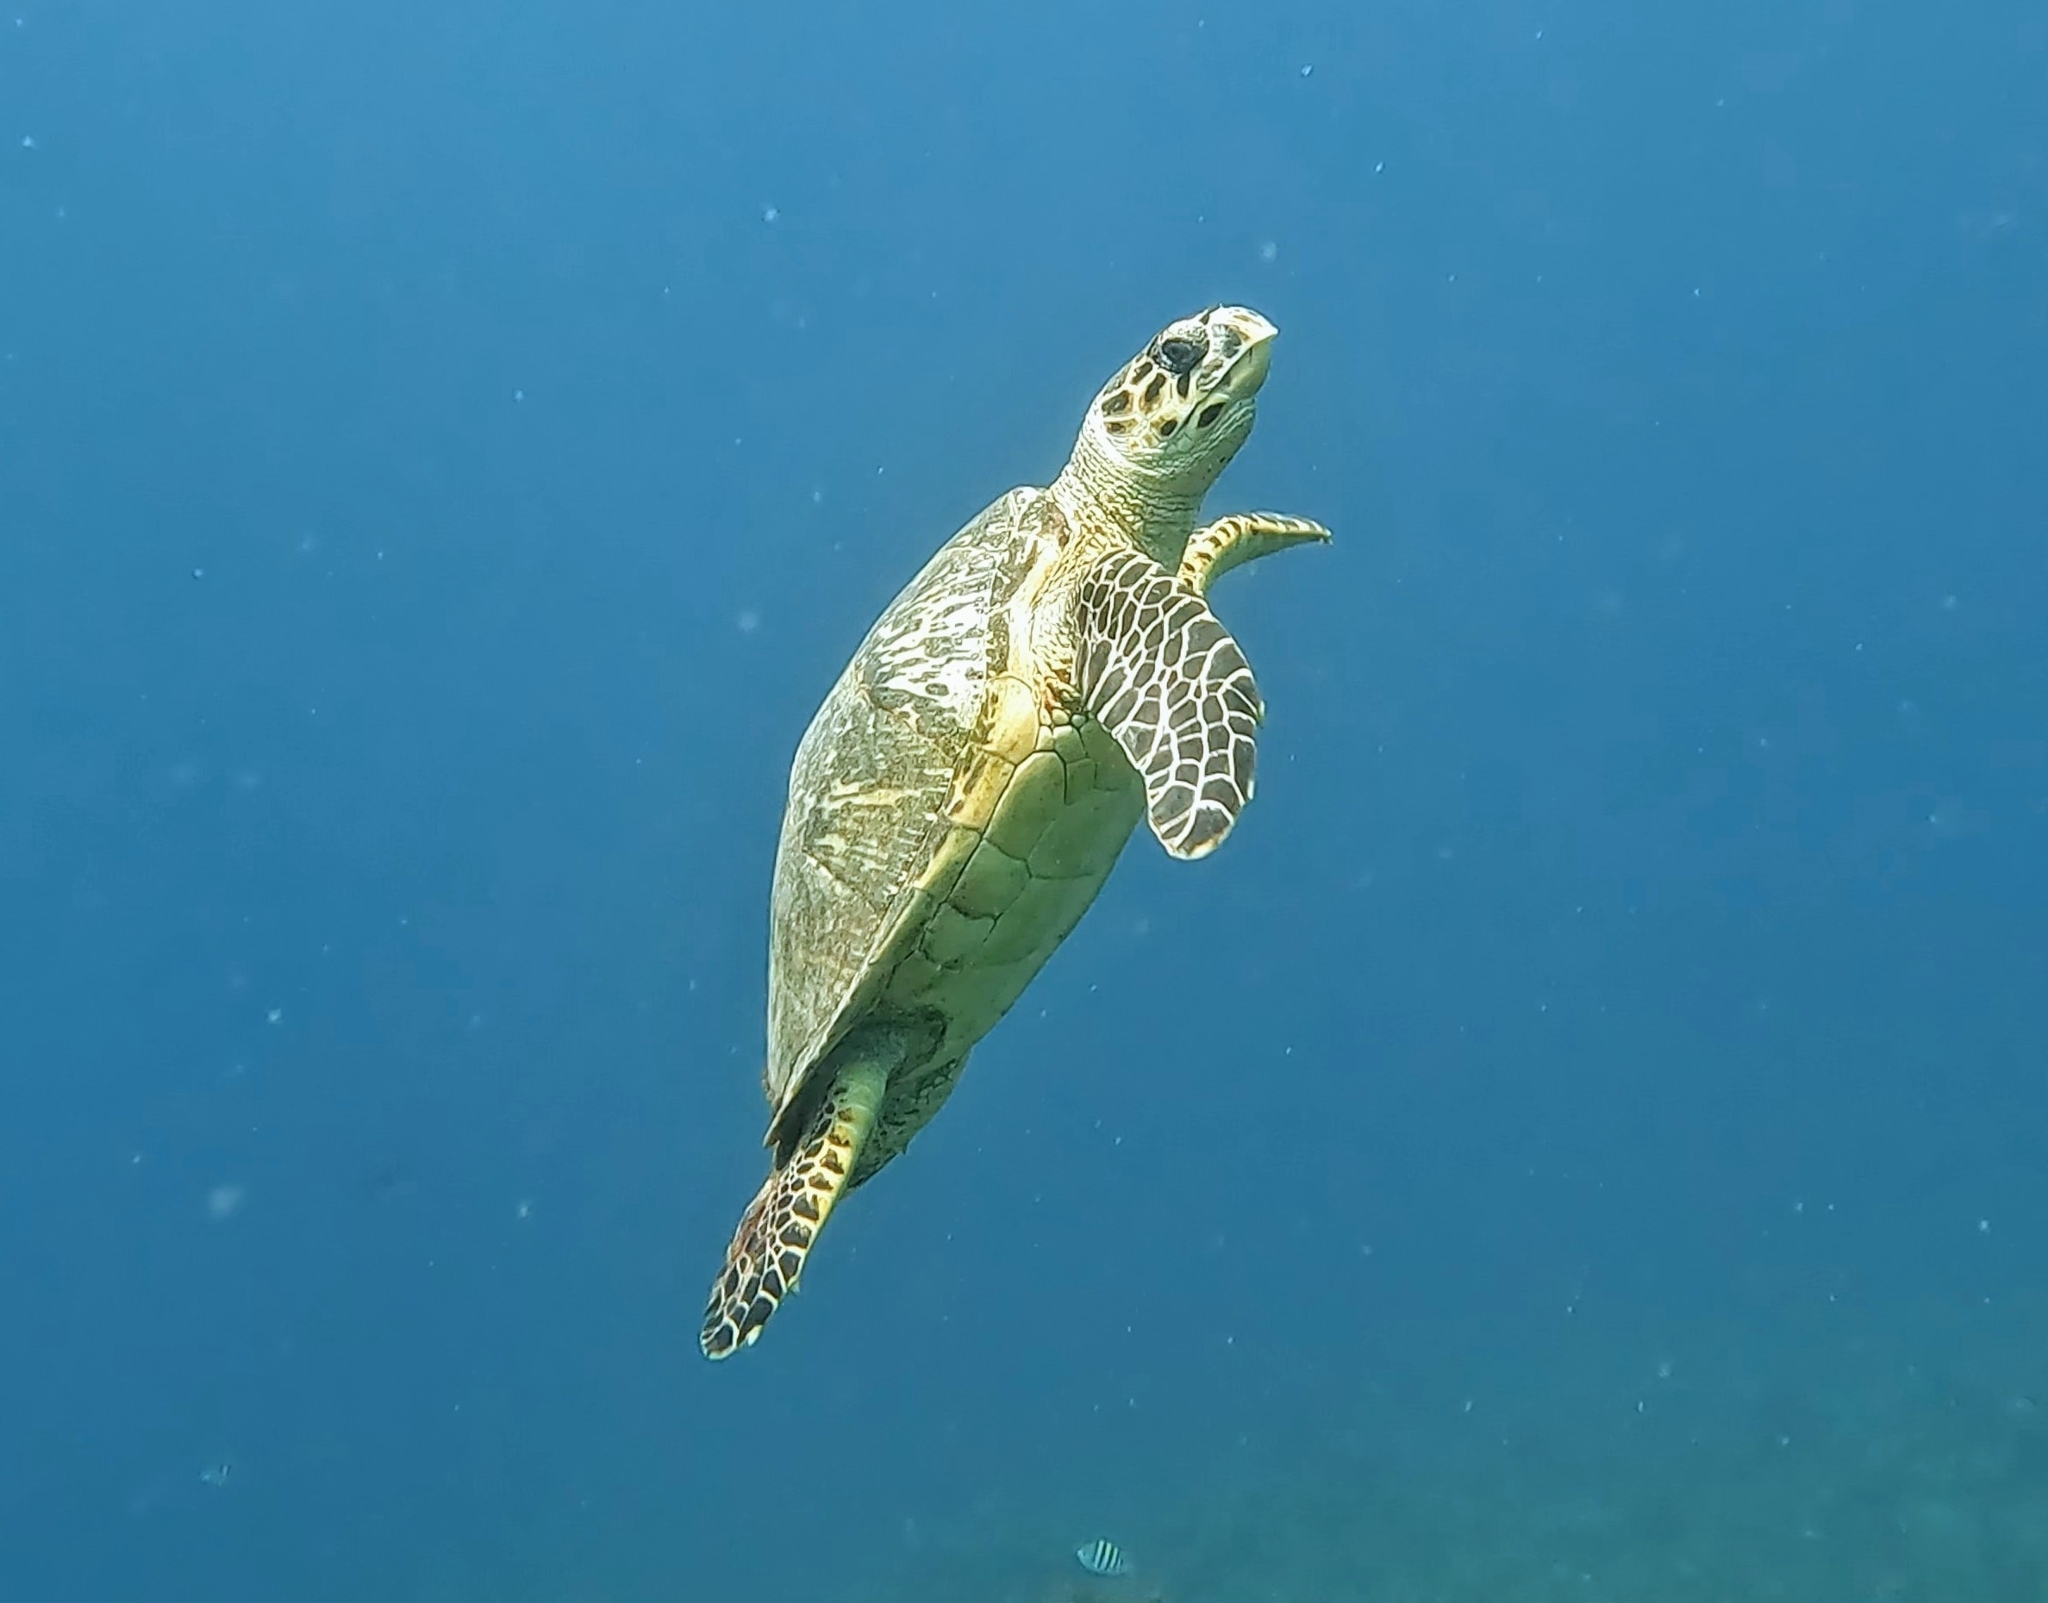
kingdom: Animalia
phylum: Chordata
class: Testudines
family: Cheloniidae
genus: Eretmochelys
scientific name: Eretmochelys imbricata
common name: Hawksbill turtle
